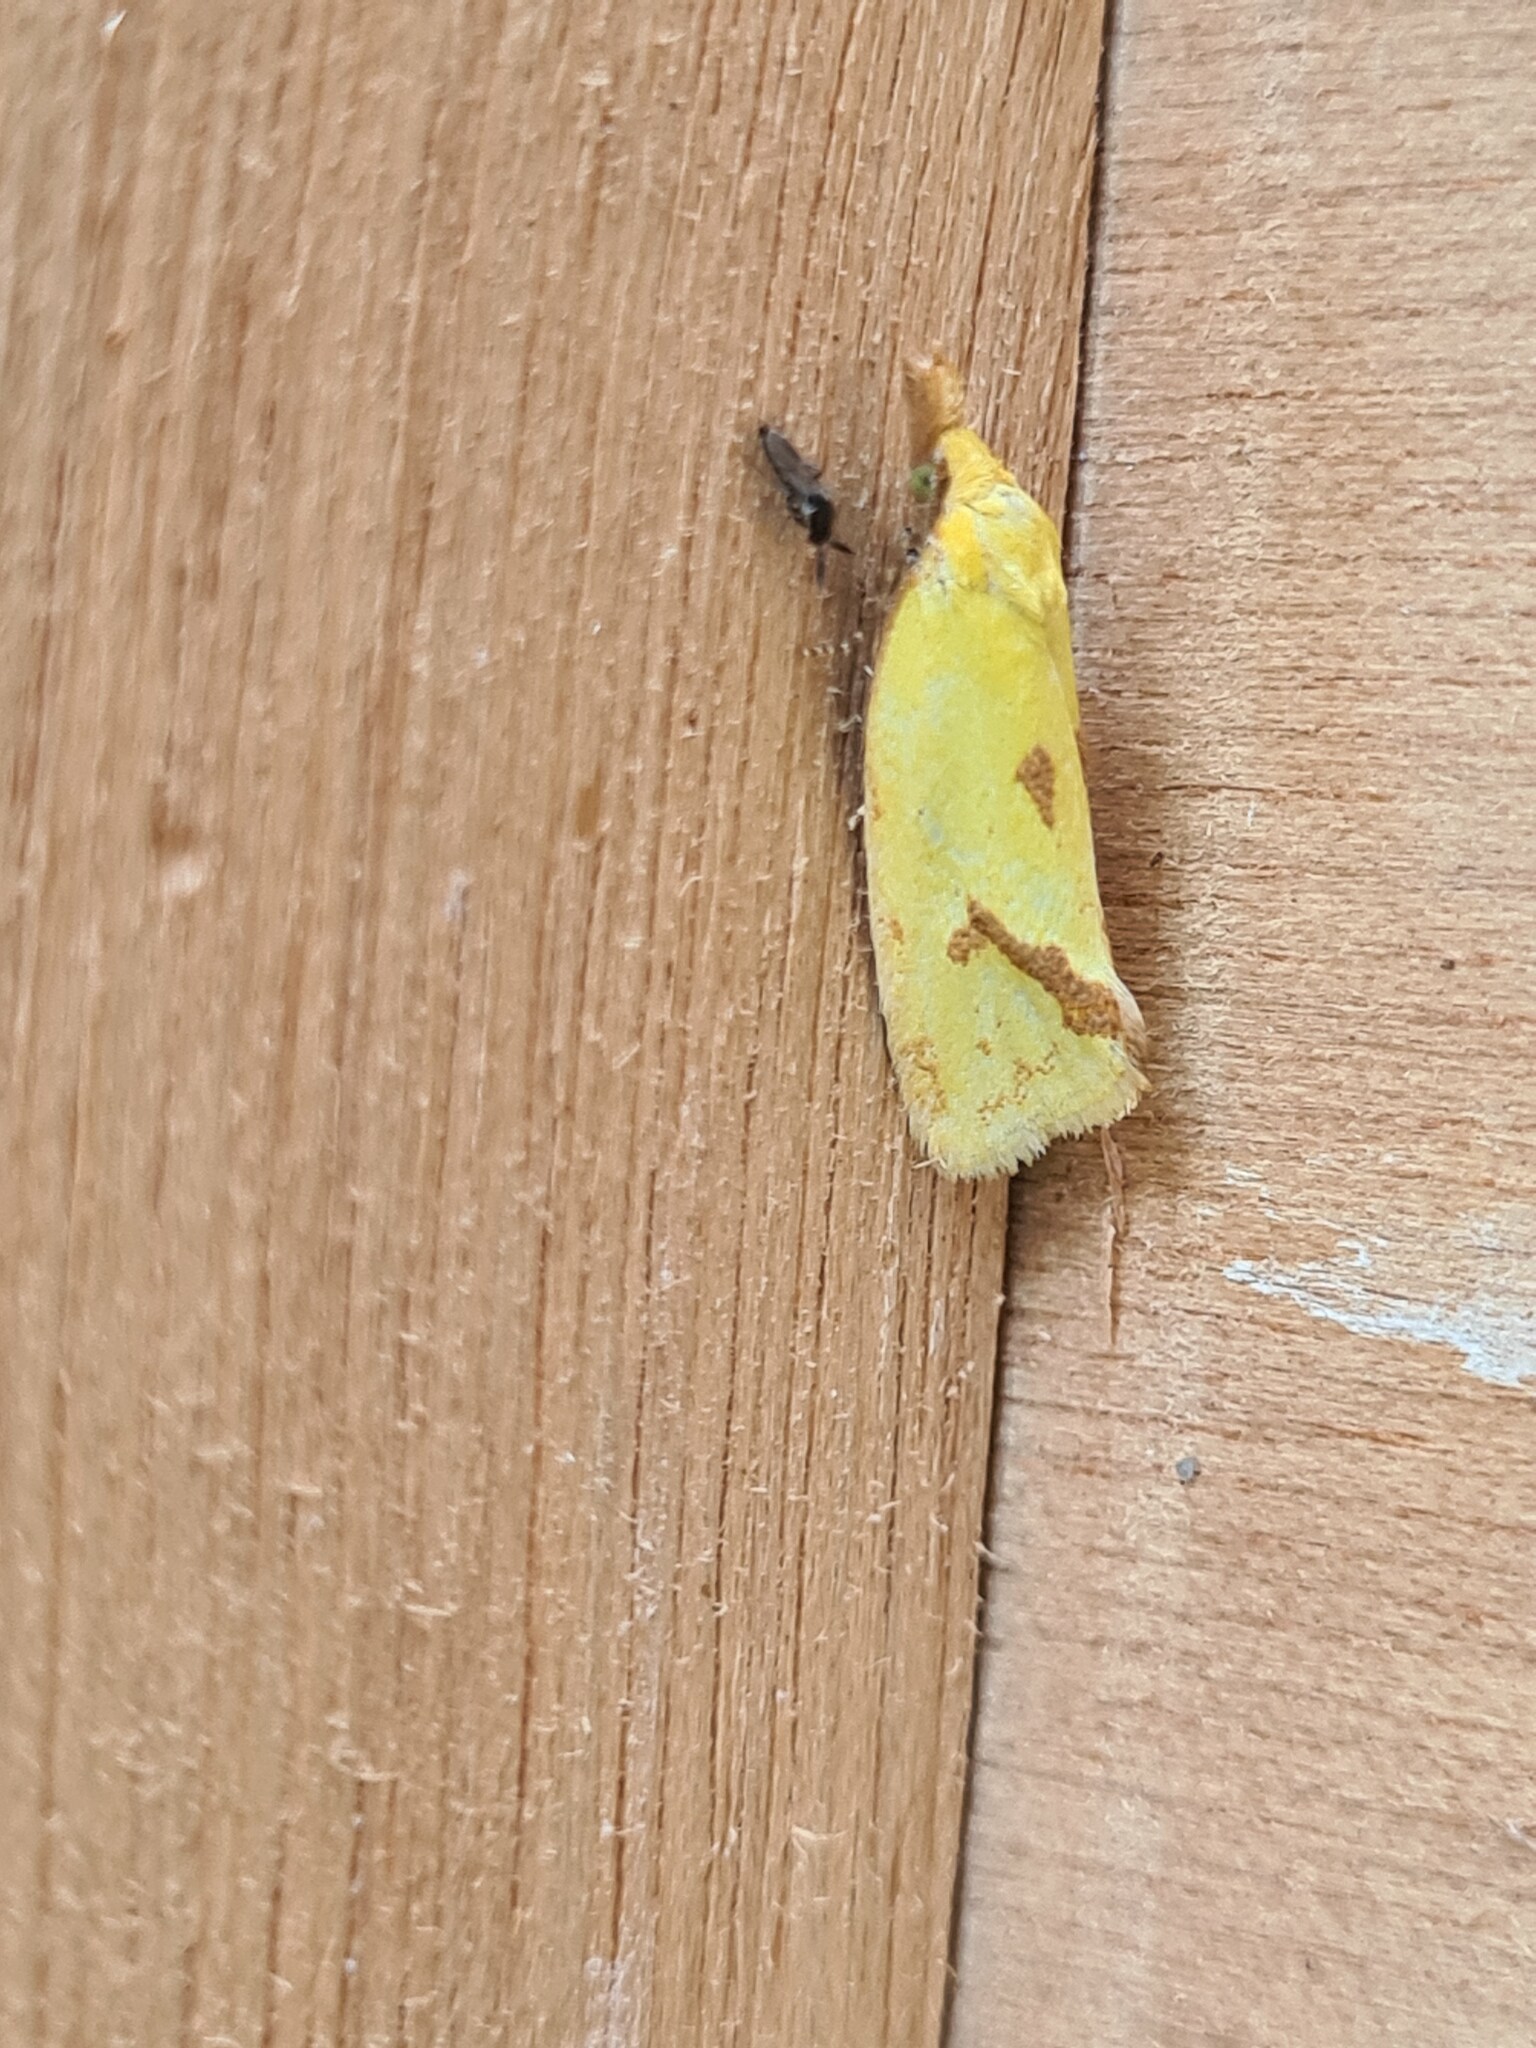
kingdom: Animalia
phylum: Arthropoda
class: Insecta
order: Lepidoptera
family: Tortricidae
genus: Agapeta
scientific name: Agapeta hamana
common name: Common yellow conch
